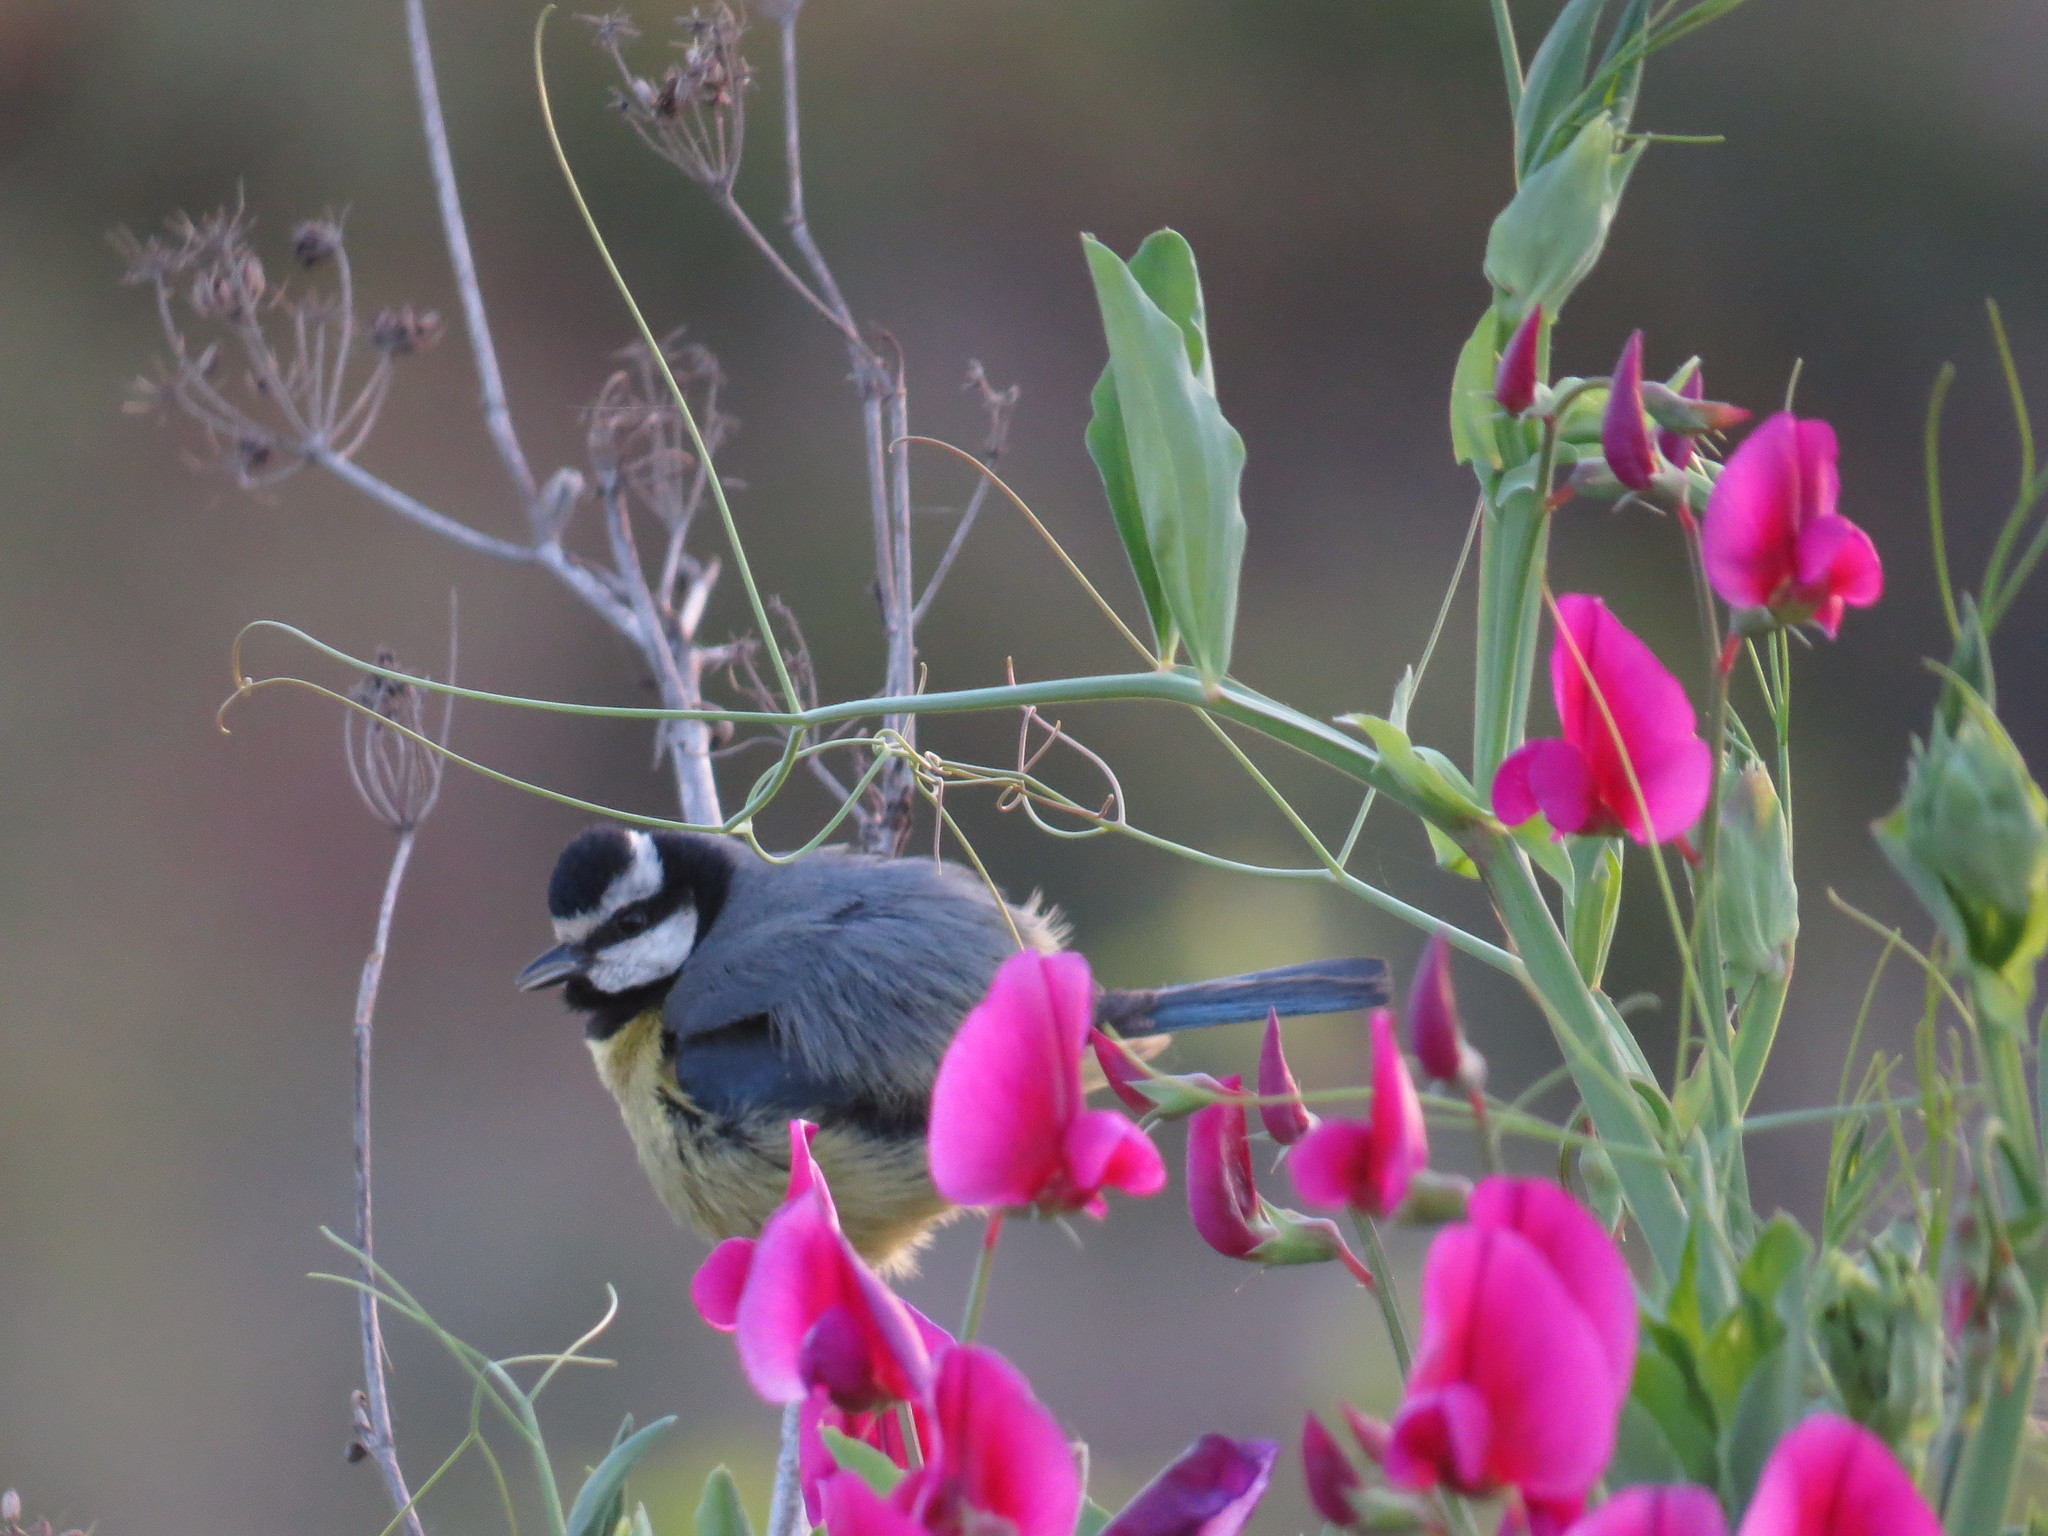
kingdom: Animalia
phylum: Chordata
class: Aves
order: Passeriformes
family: Paridae
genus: Cyanistes
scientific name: Cyanistes teneriffae
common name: African blue tit
